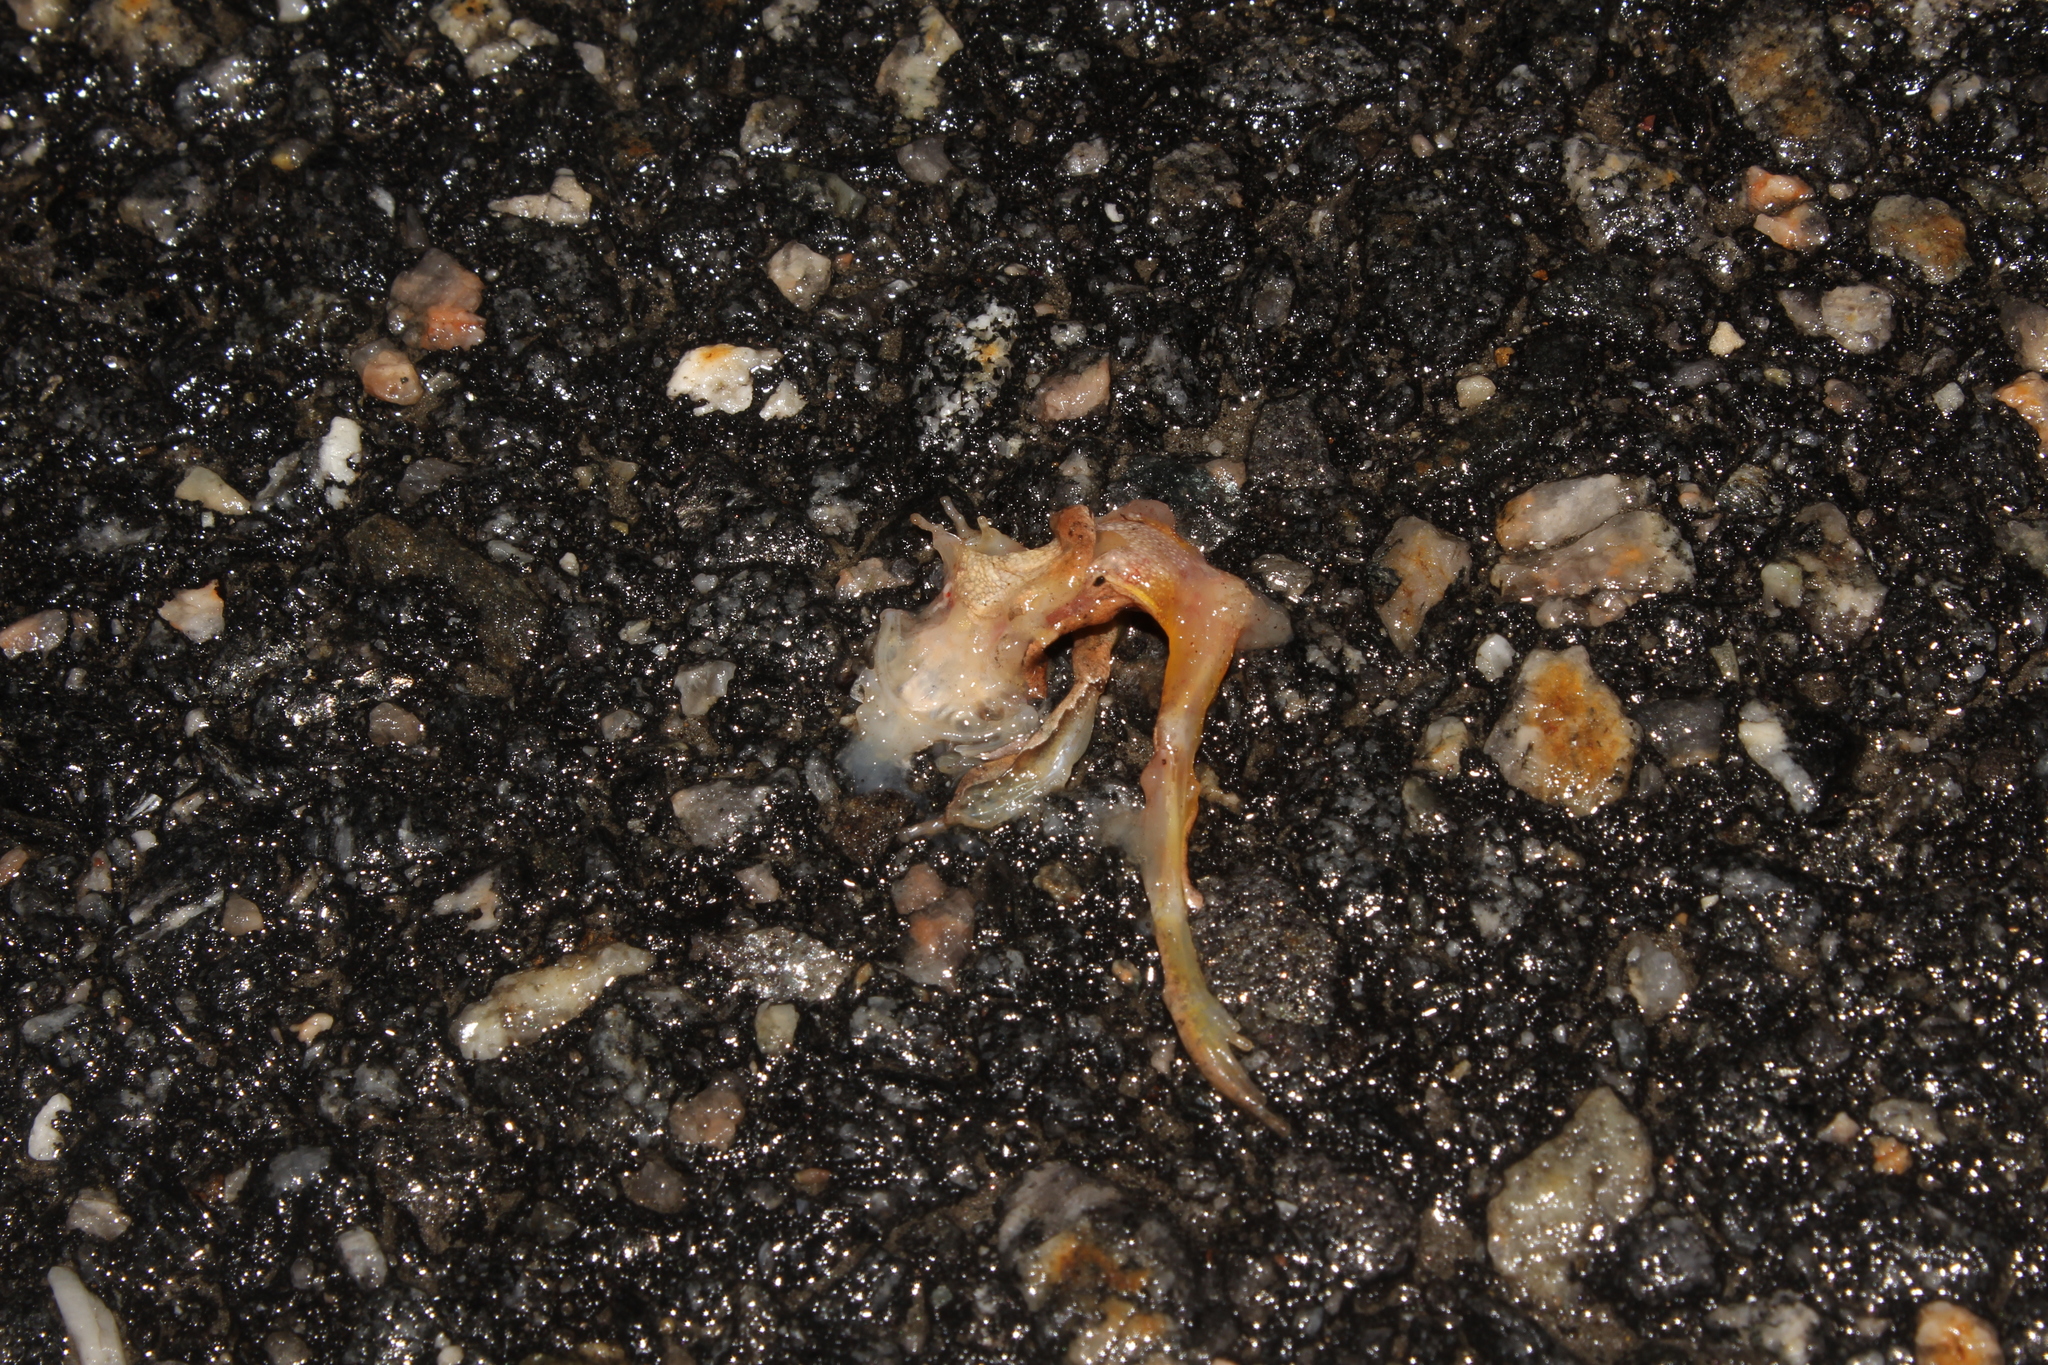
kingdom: Animalia
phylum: Chordata
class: Amphibia
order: Anura
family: Hylidae
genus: Pseudacris
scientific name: Pseudacris crucifer
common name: Spring peeper
